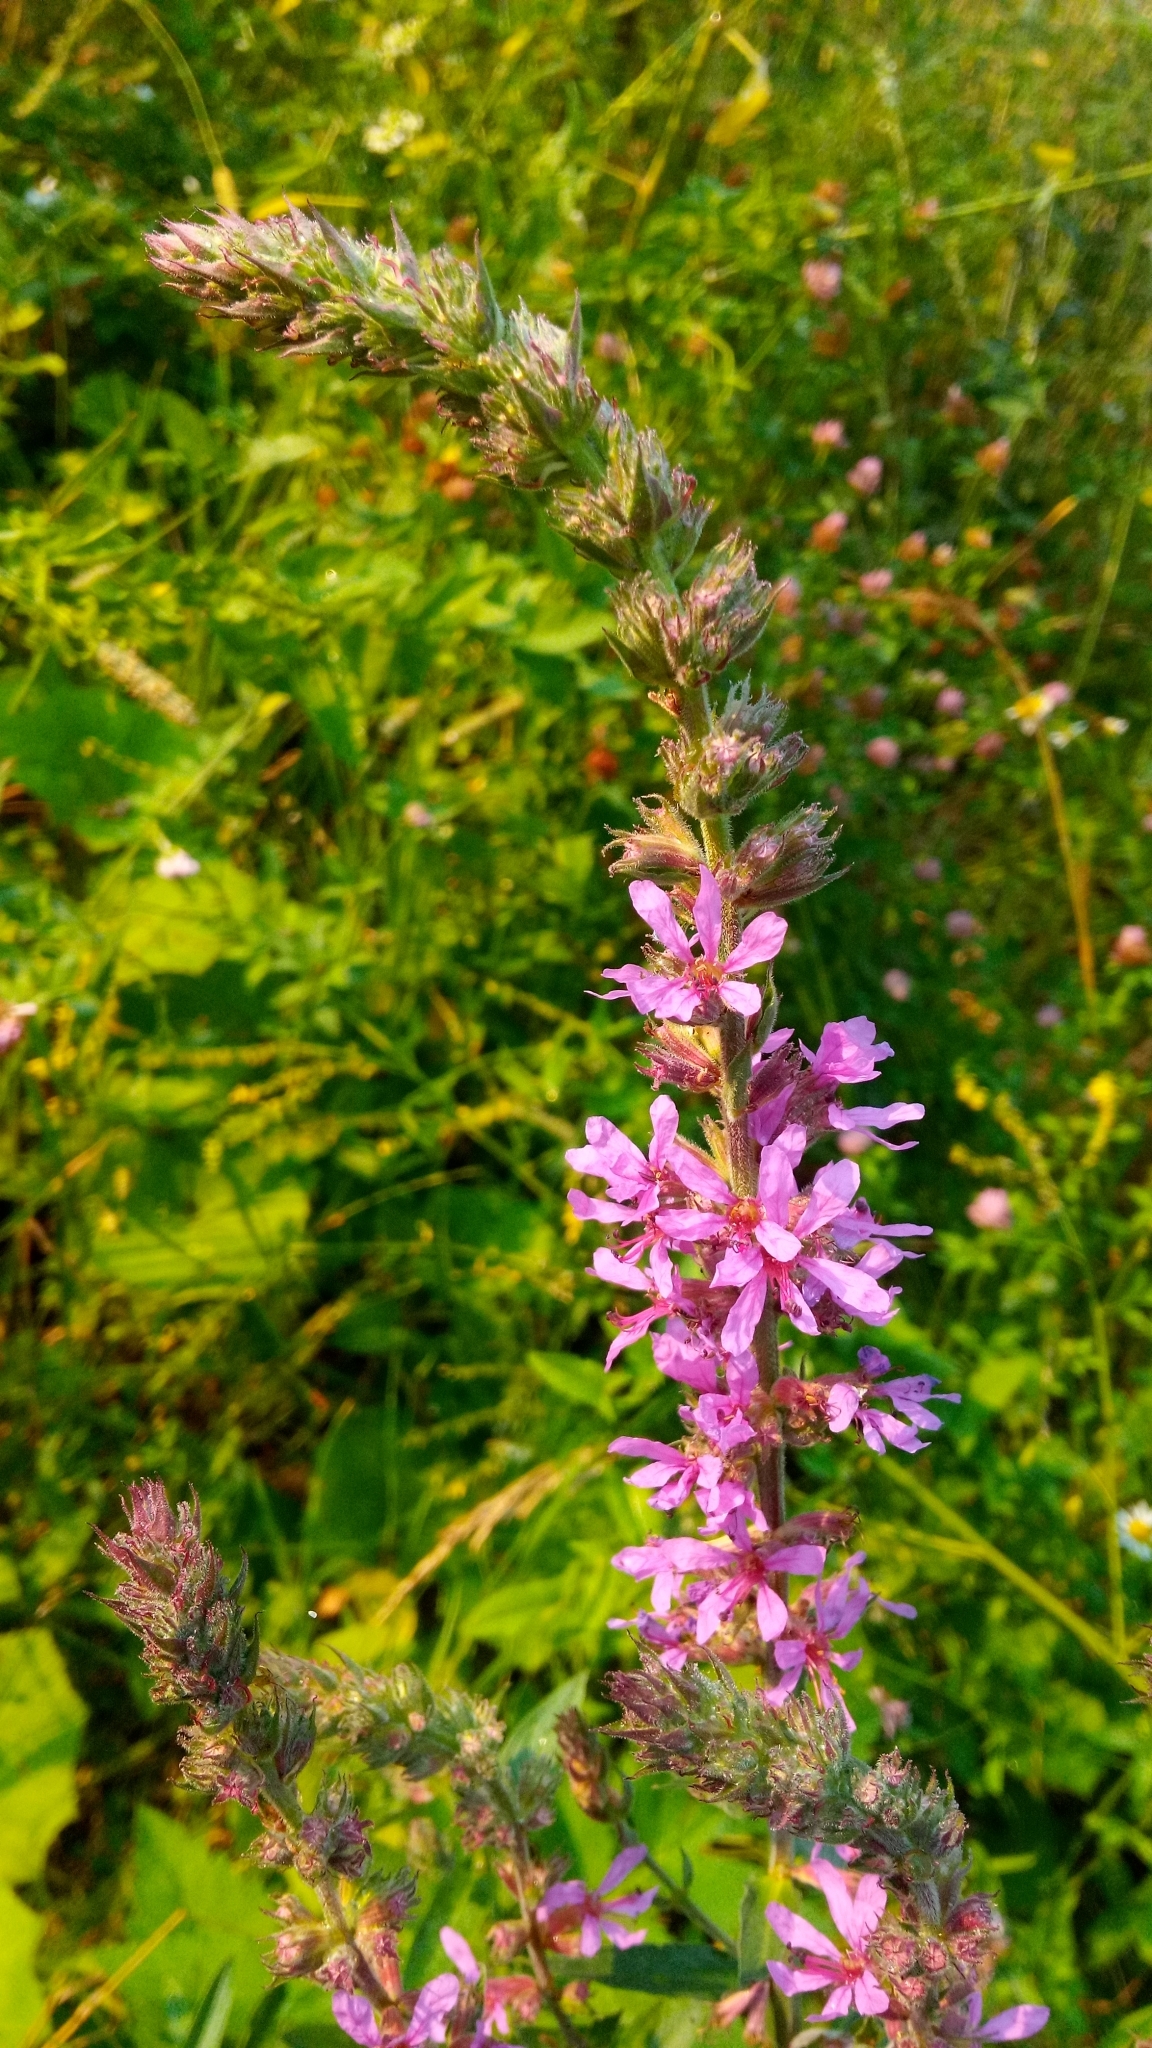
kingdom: Plantae
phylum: Tracheophyta
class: Magnoliopsida
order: Myrtales
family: Lythraceae
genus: Lythrum
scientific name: Lythrum salicaria
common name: Purple loosestrife
